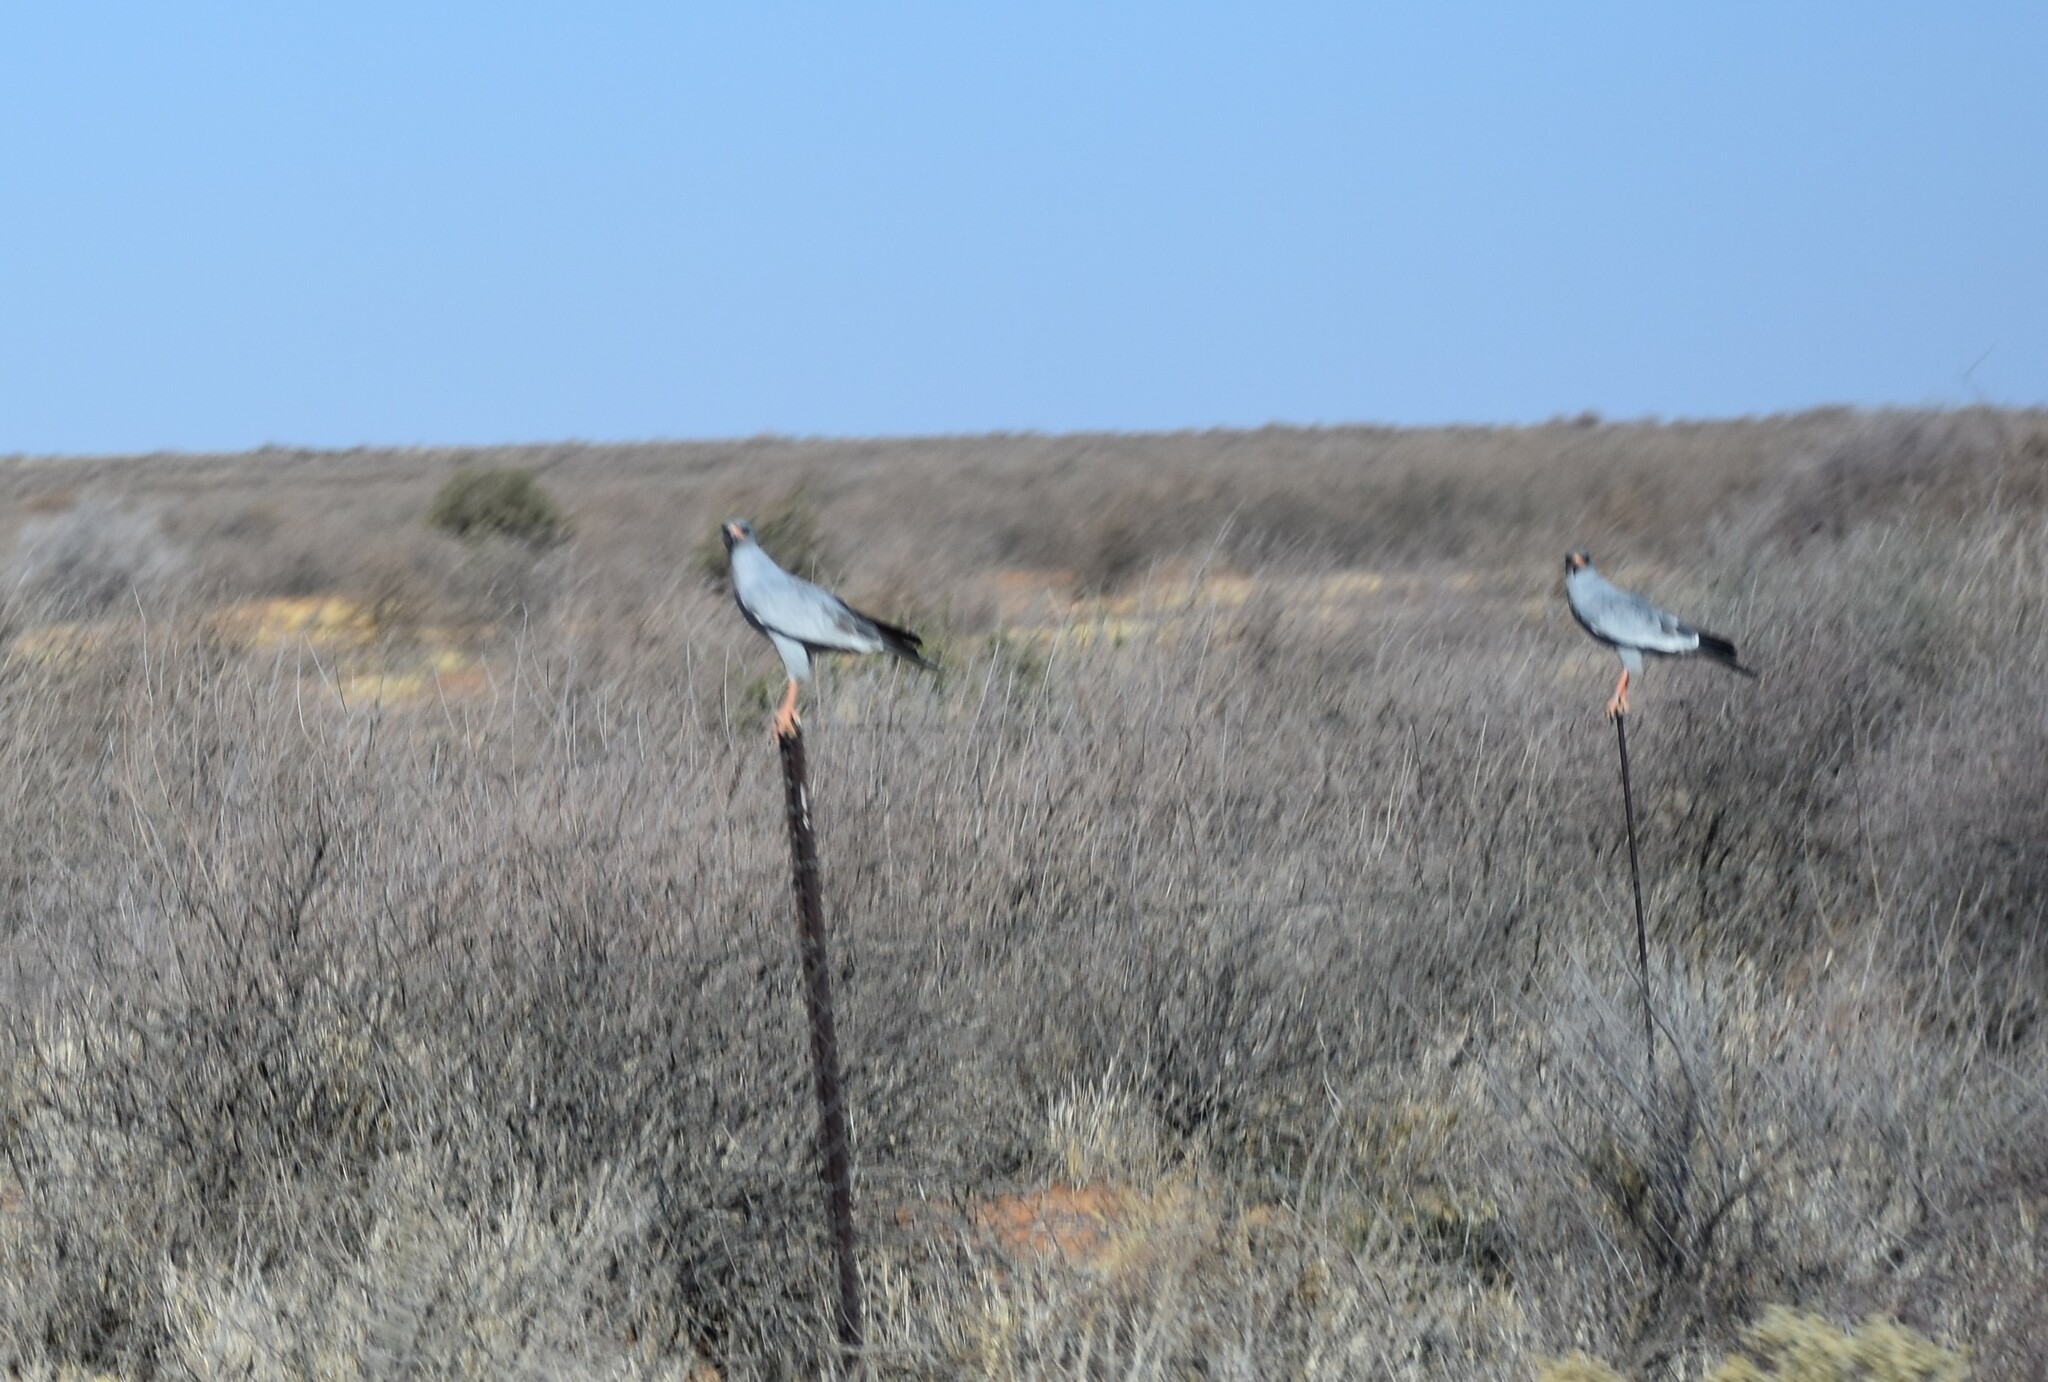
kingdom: Animalia
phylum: Chordata
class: Aves
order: Accipitriformes
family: Accipitridae
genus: Melierax
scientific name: Melierax canorus
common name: Pale chanting-goshawk
